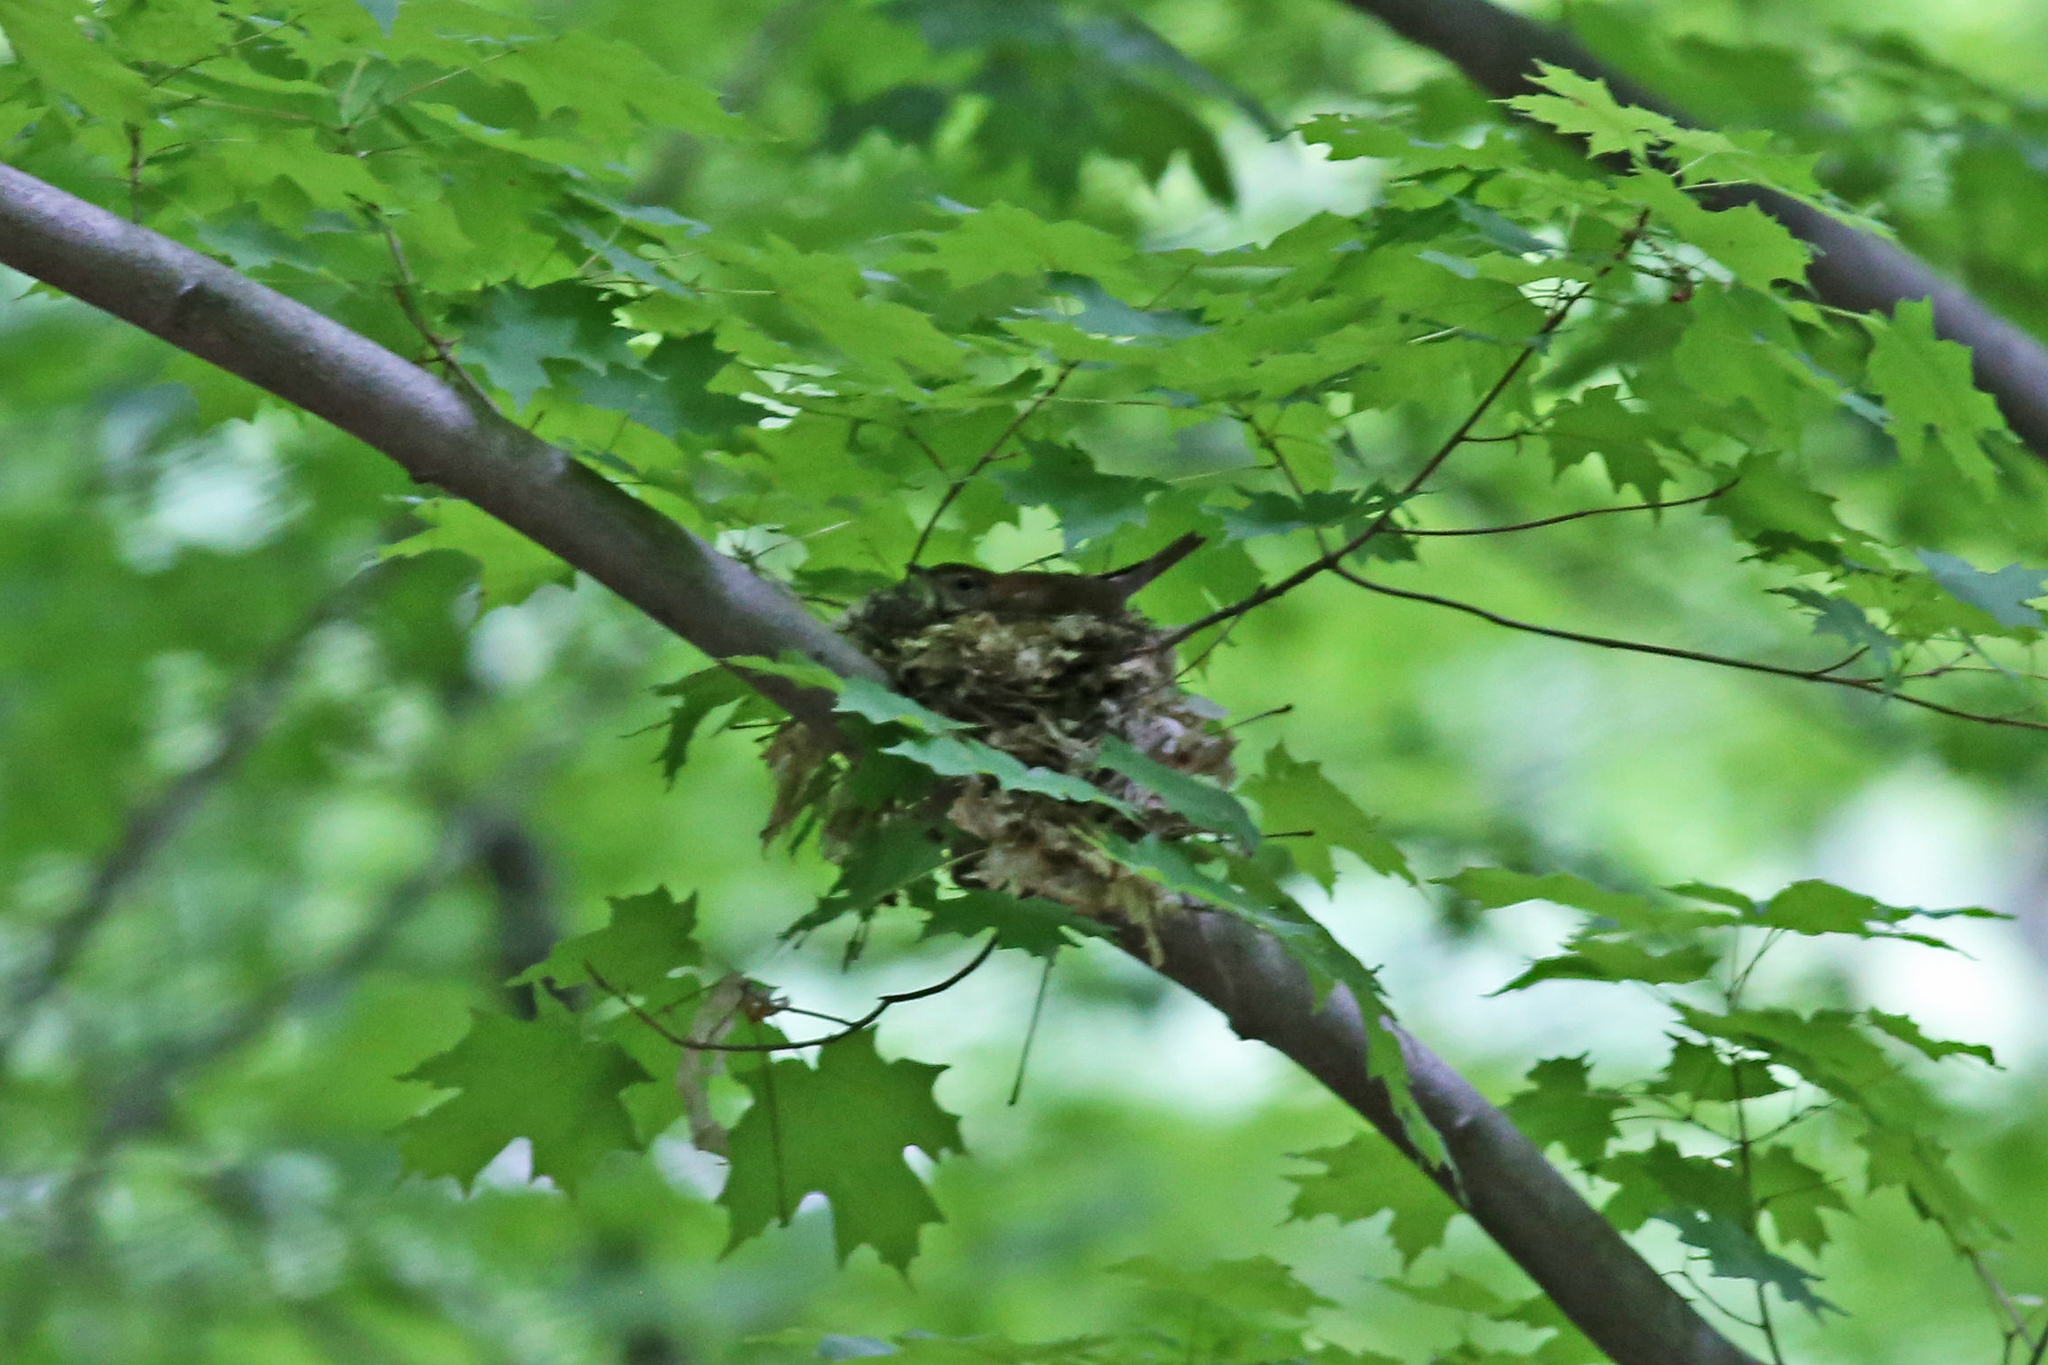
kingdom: Animalia
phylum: Chordata
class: Aves
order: Passeriformes
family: Turdidae
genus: Hylocichla
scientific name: Hylocichla mustelina
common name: Wood thrush
